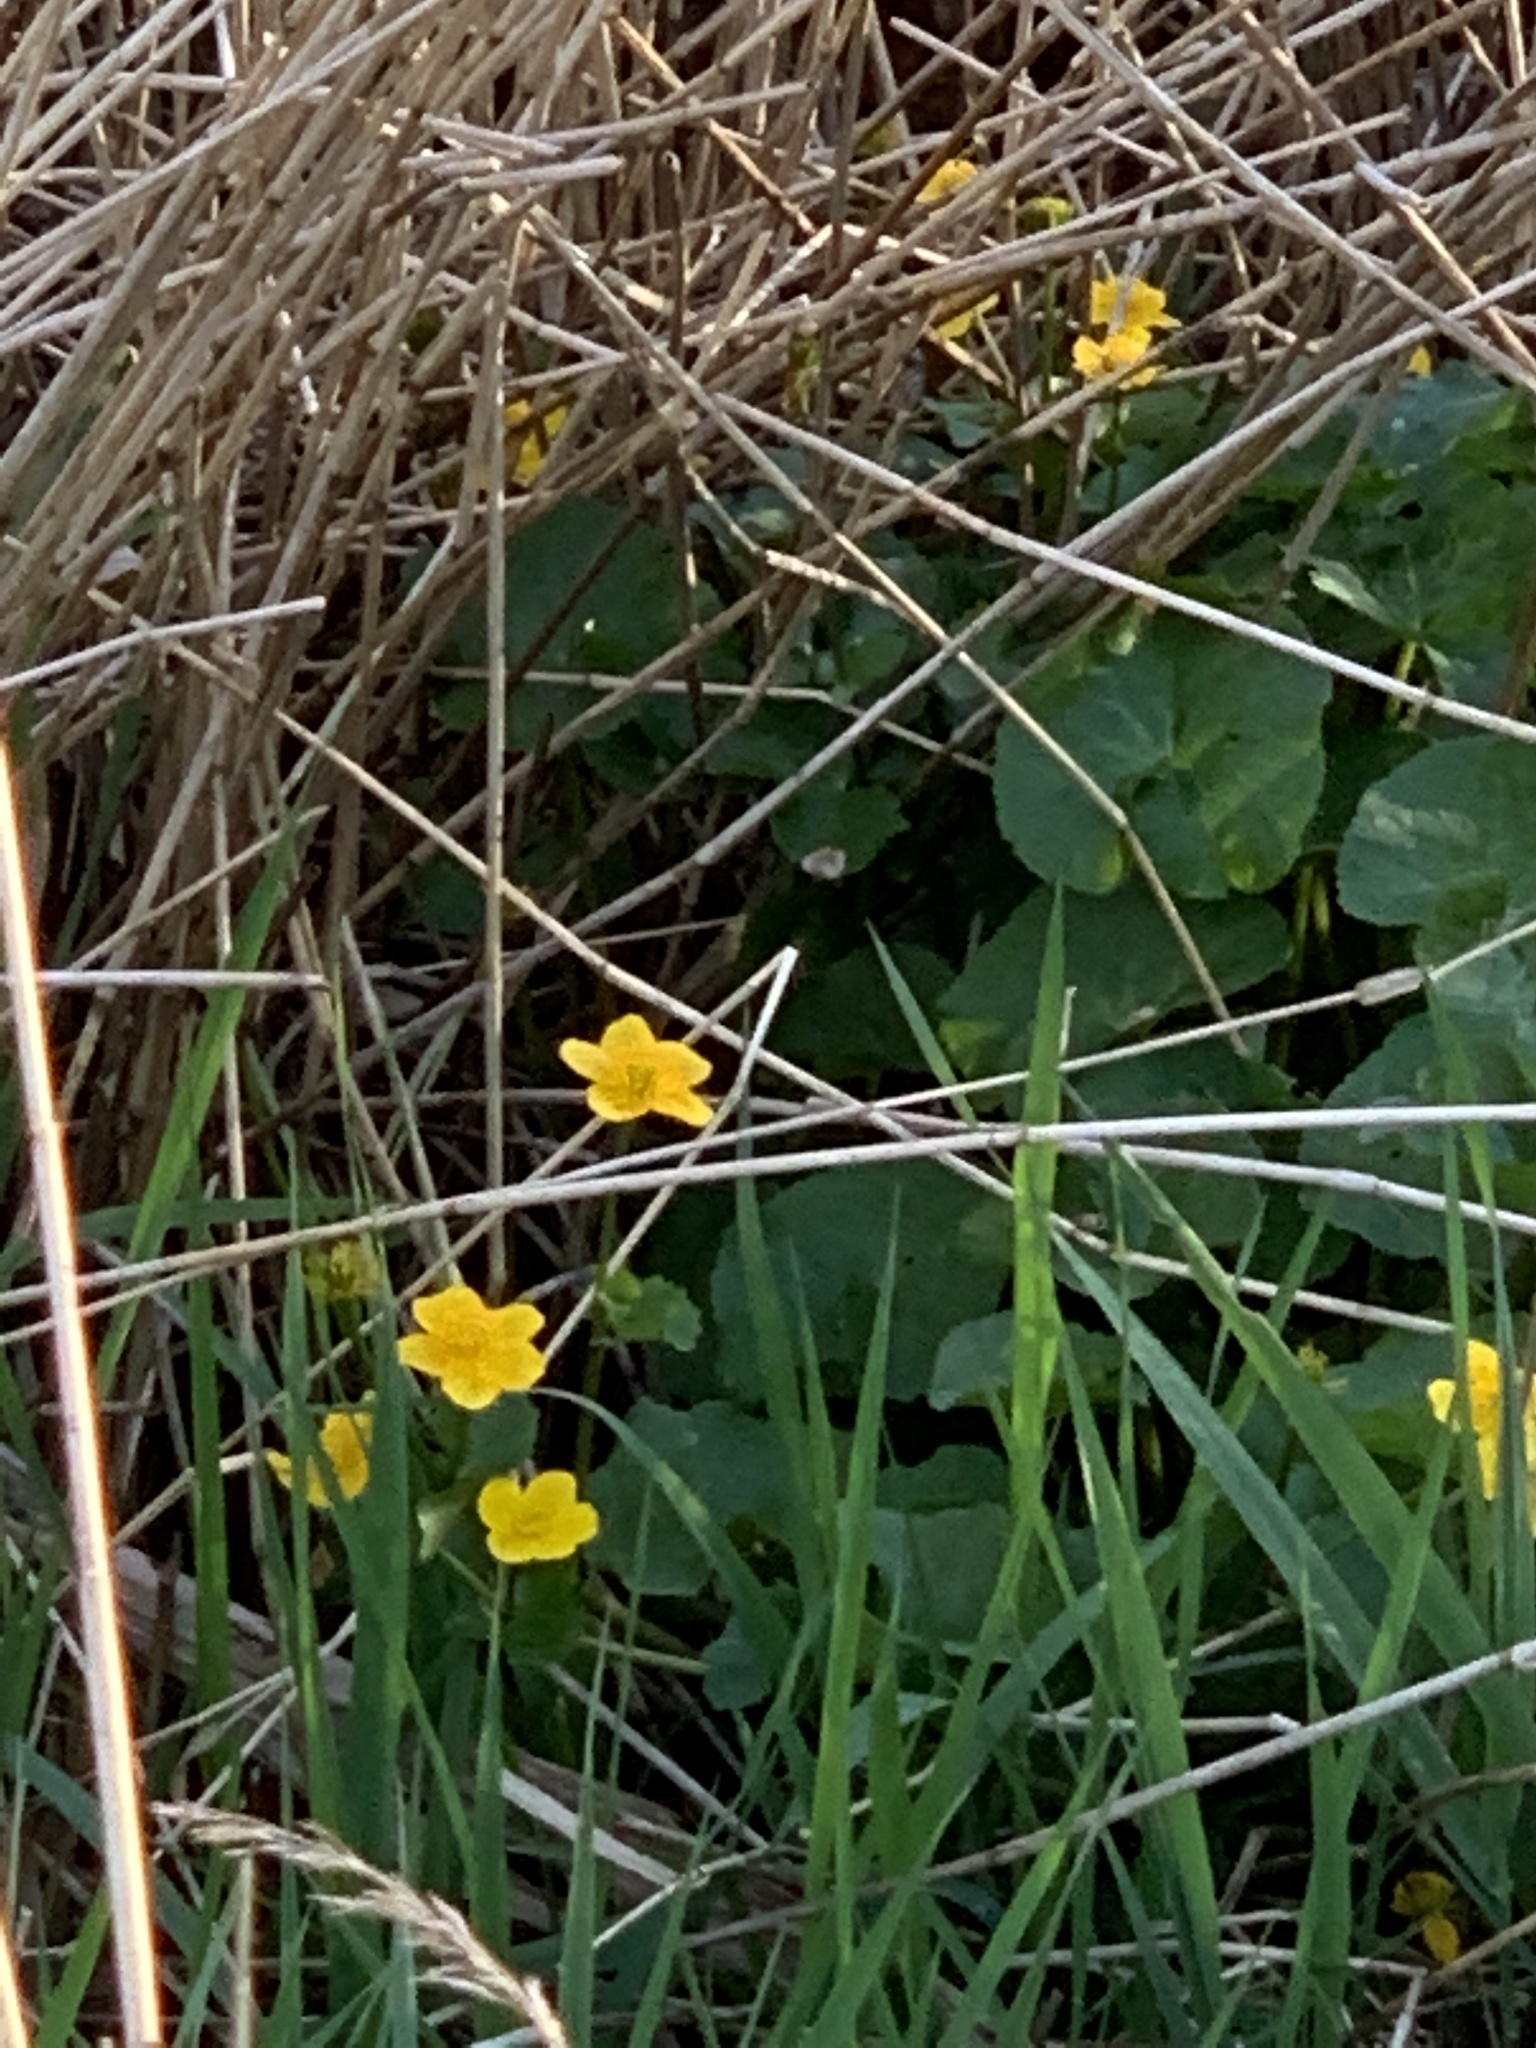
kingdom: Plantae
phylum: Tracheophyta
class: Magnoliopsida
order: Ranunculales
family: Ranunculaceae
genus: Caltha
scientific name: Caltha palustris
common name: Marsh marigold
